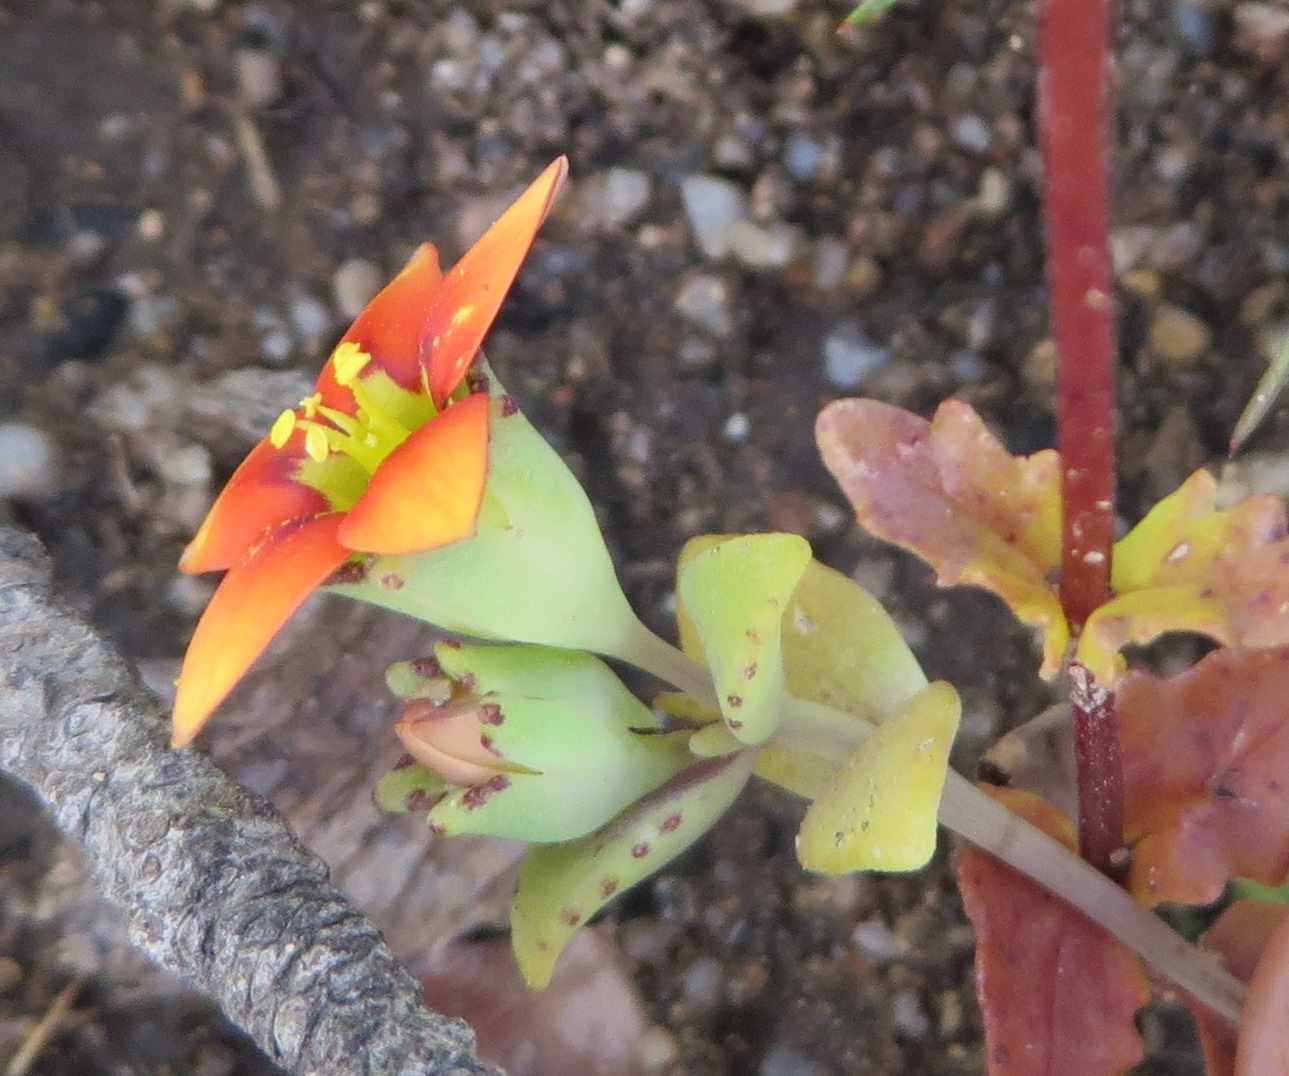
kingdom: Plantae
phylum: Tracheophyta
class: Magnoliopsida
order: Saxifragales
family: Crassulaceae
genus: Crassula
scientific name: Crassula dichotoma
